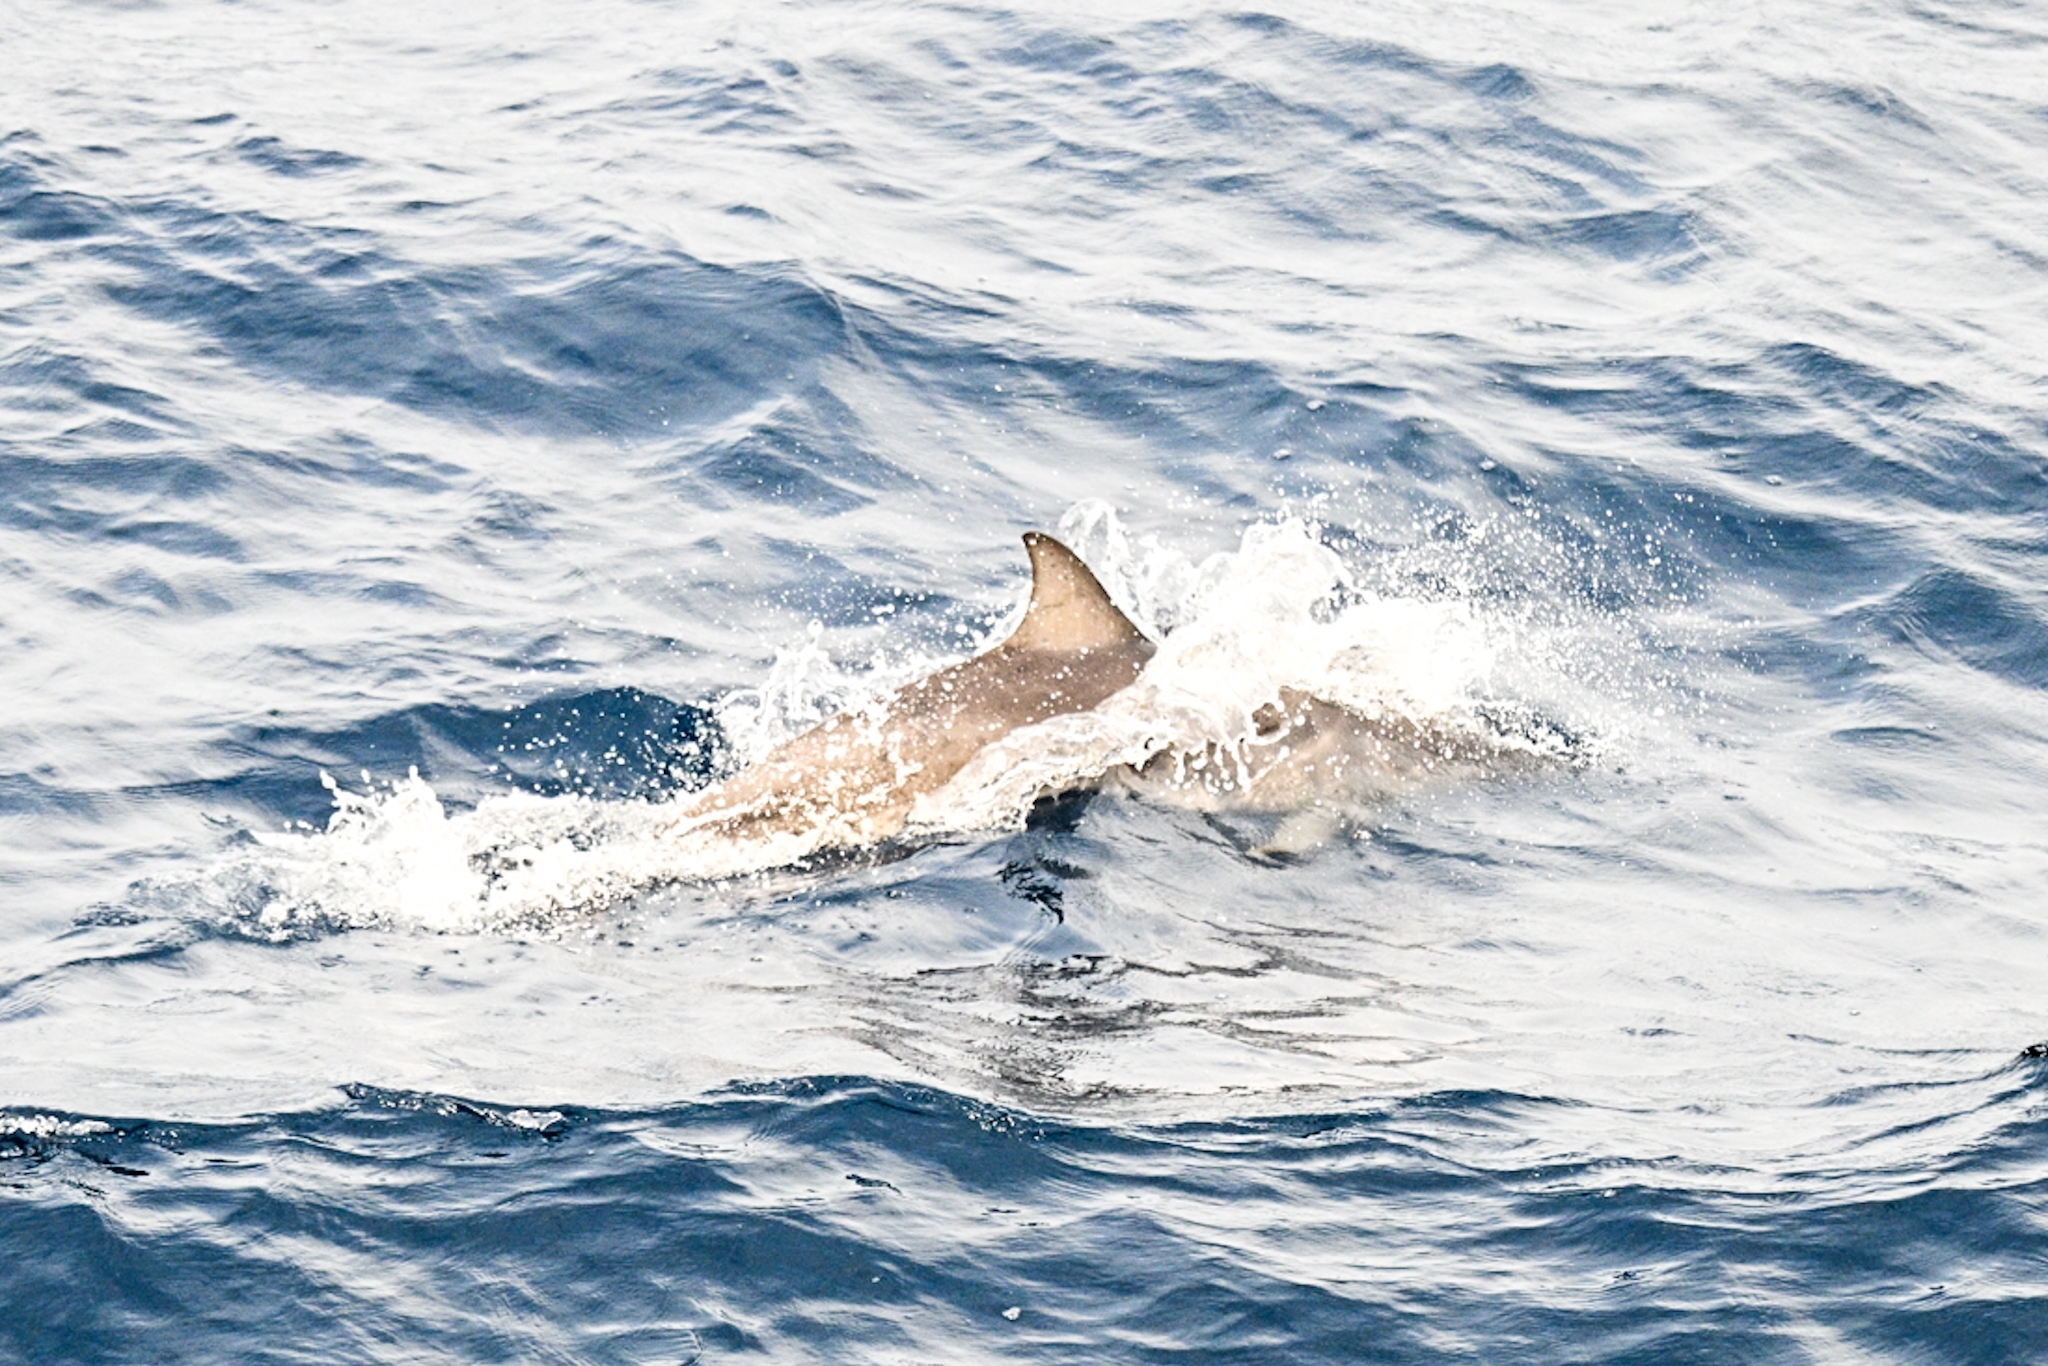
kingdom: Animalia
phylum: Chordata
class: Mammalia
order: Cetacea
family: Delphinidae
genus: Stenella
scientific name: Stenella frontalis
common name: Atlantic spotted dolphin
